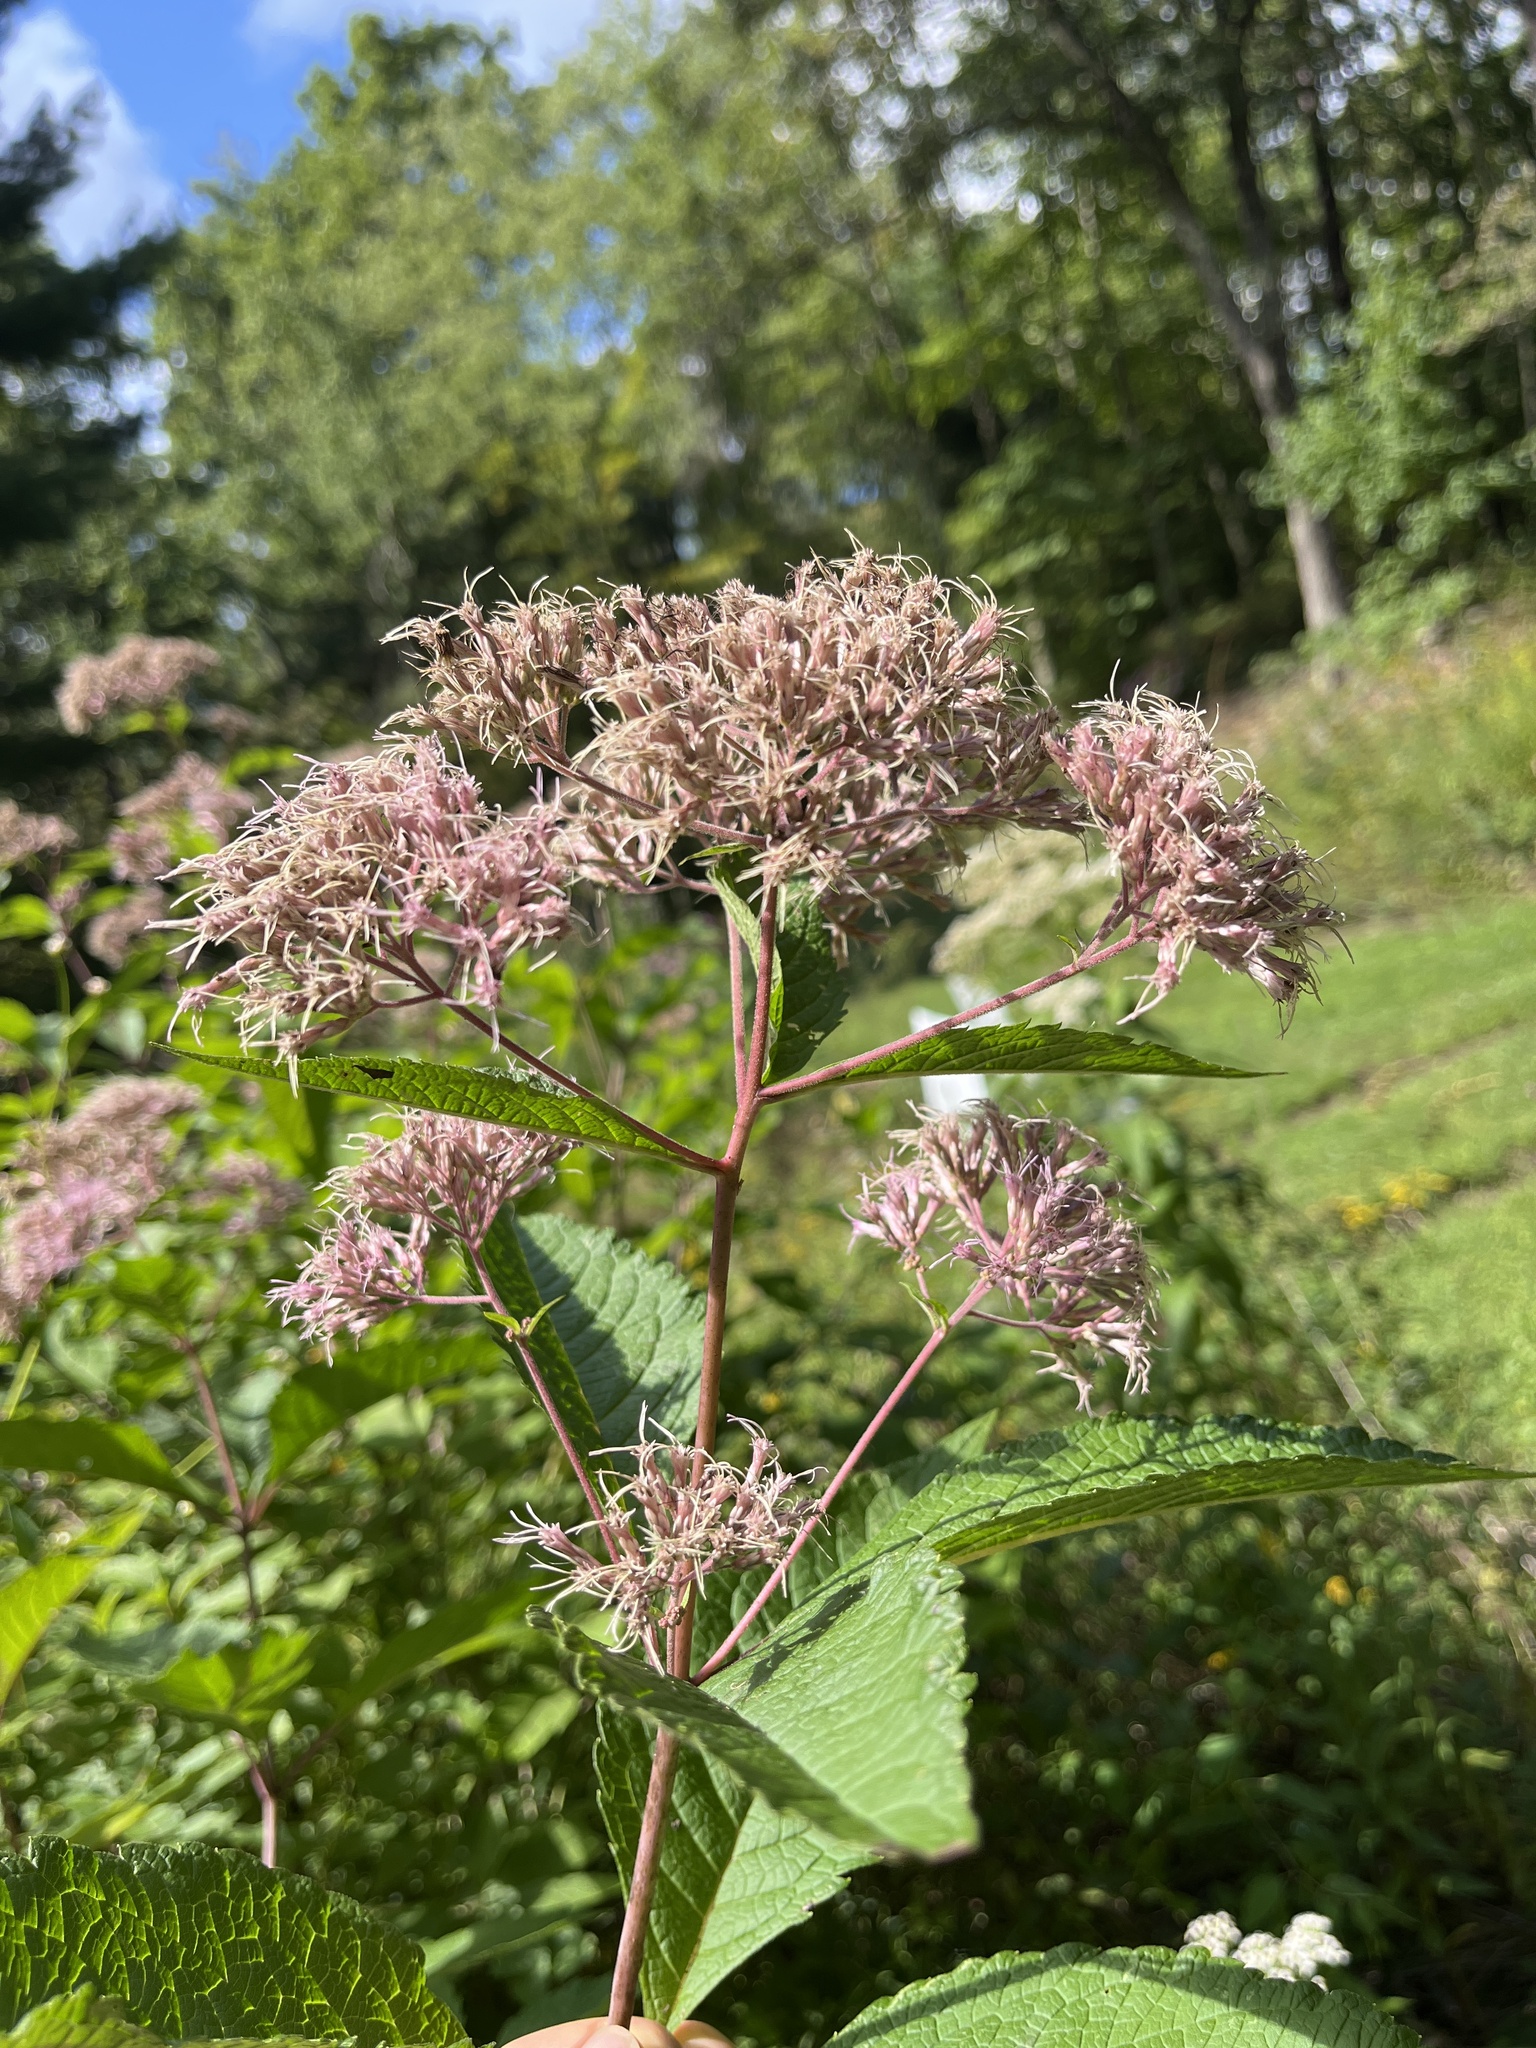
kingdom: Plantae
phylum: Tracheophyta
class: Magnoliopsida
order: Asterales
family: Asteraceae
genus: Eutrochium
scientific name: Eutrochium dubium
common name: Coastal plain joe pye weed
